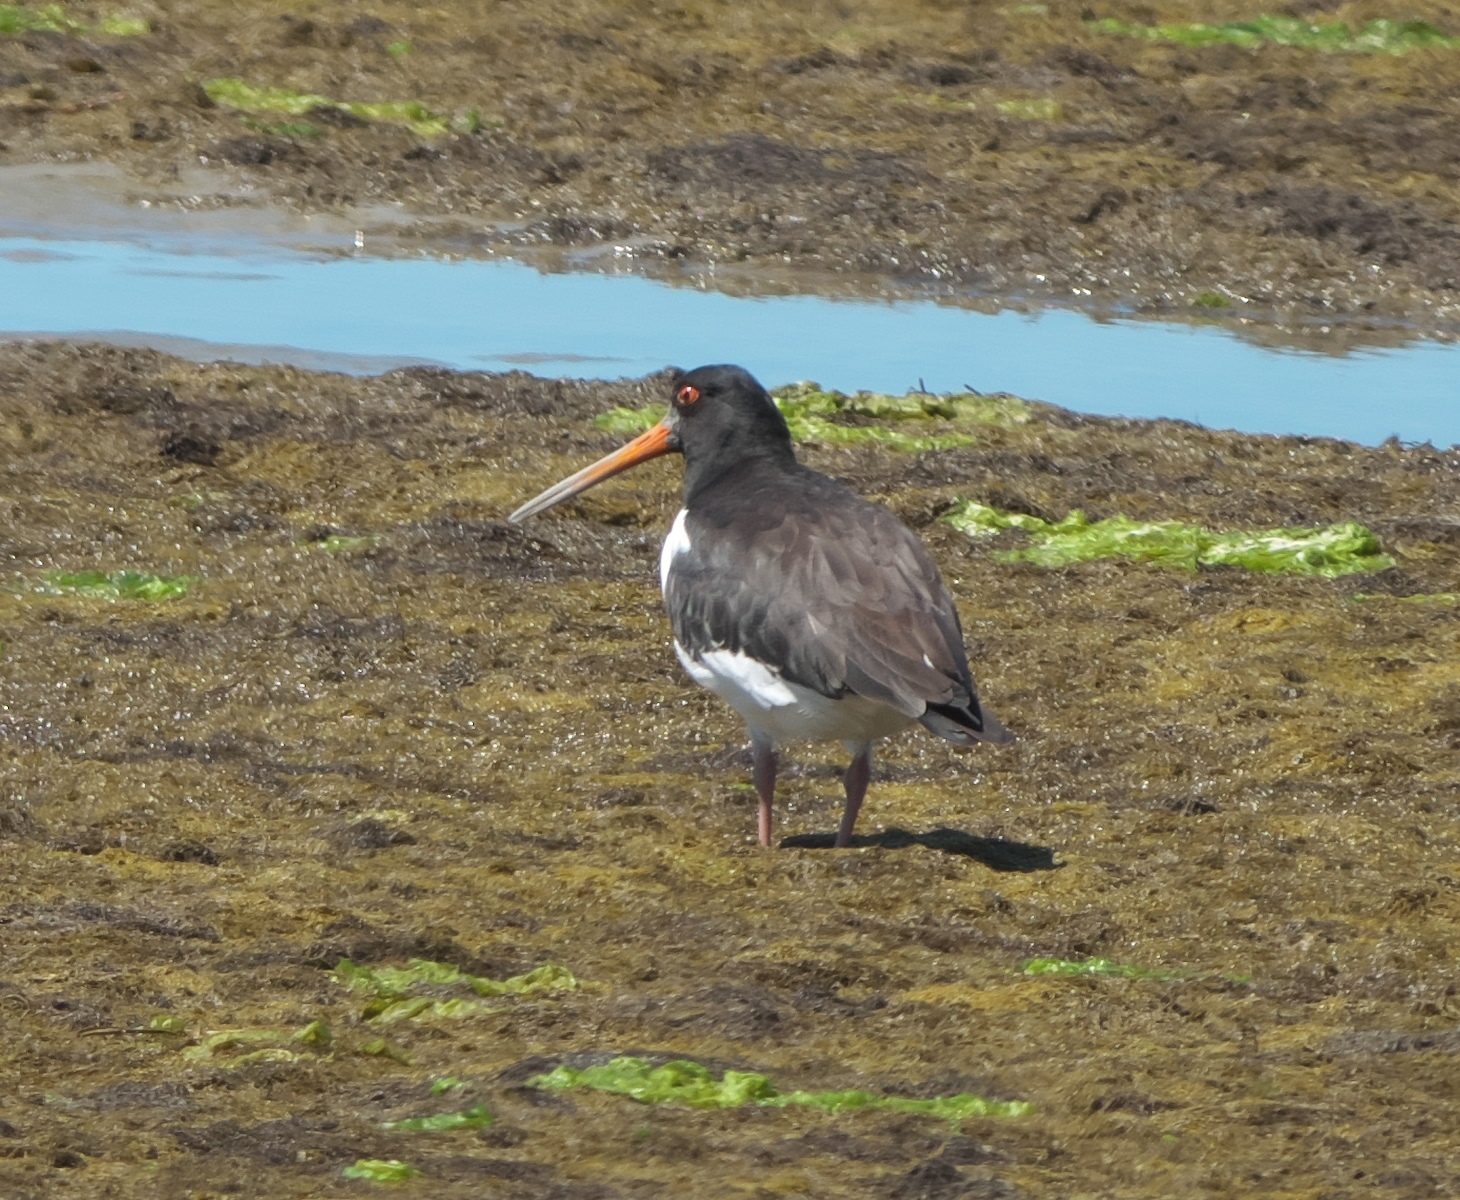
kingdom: Animalia
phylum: Chordata
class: Aves
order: Charadriiformes
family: Haematopodidae
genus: Haematopus
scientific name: Haematopus finschi
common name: South island oystercatcher
